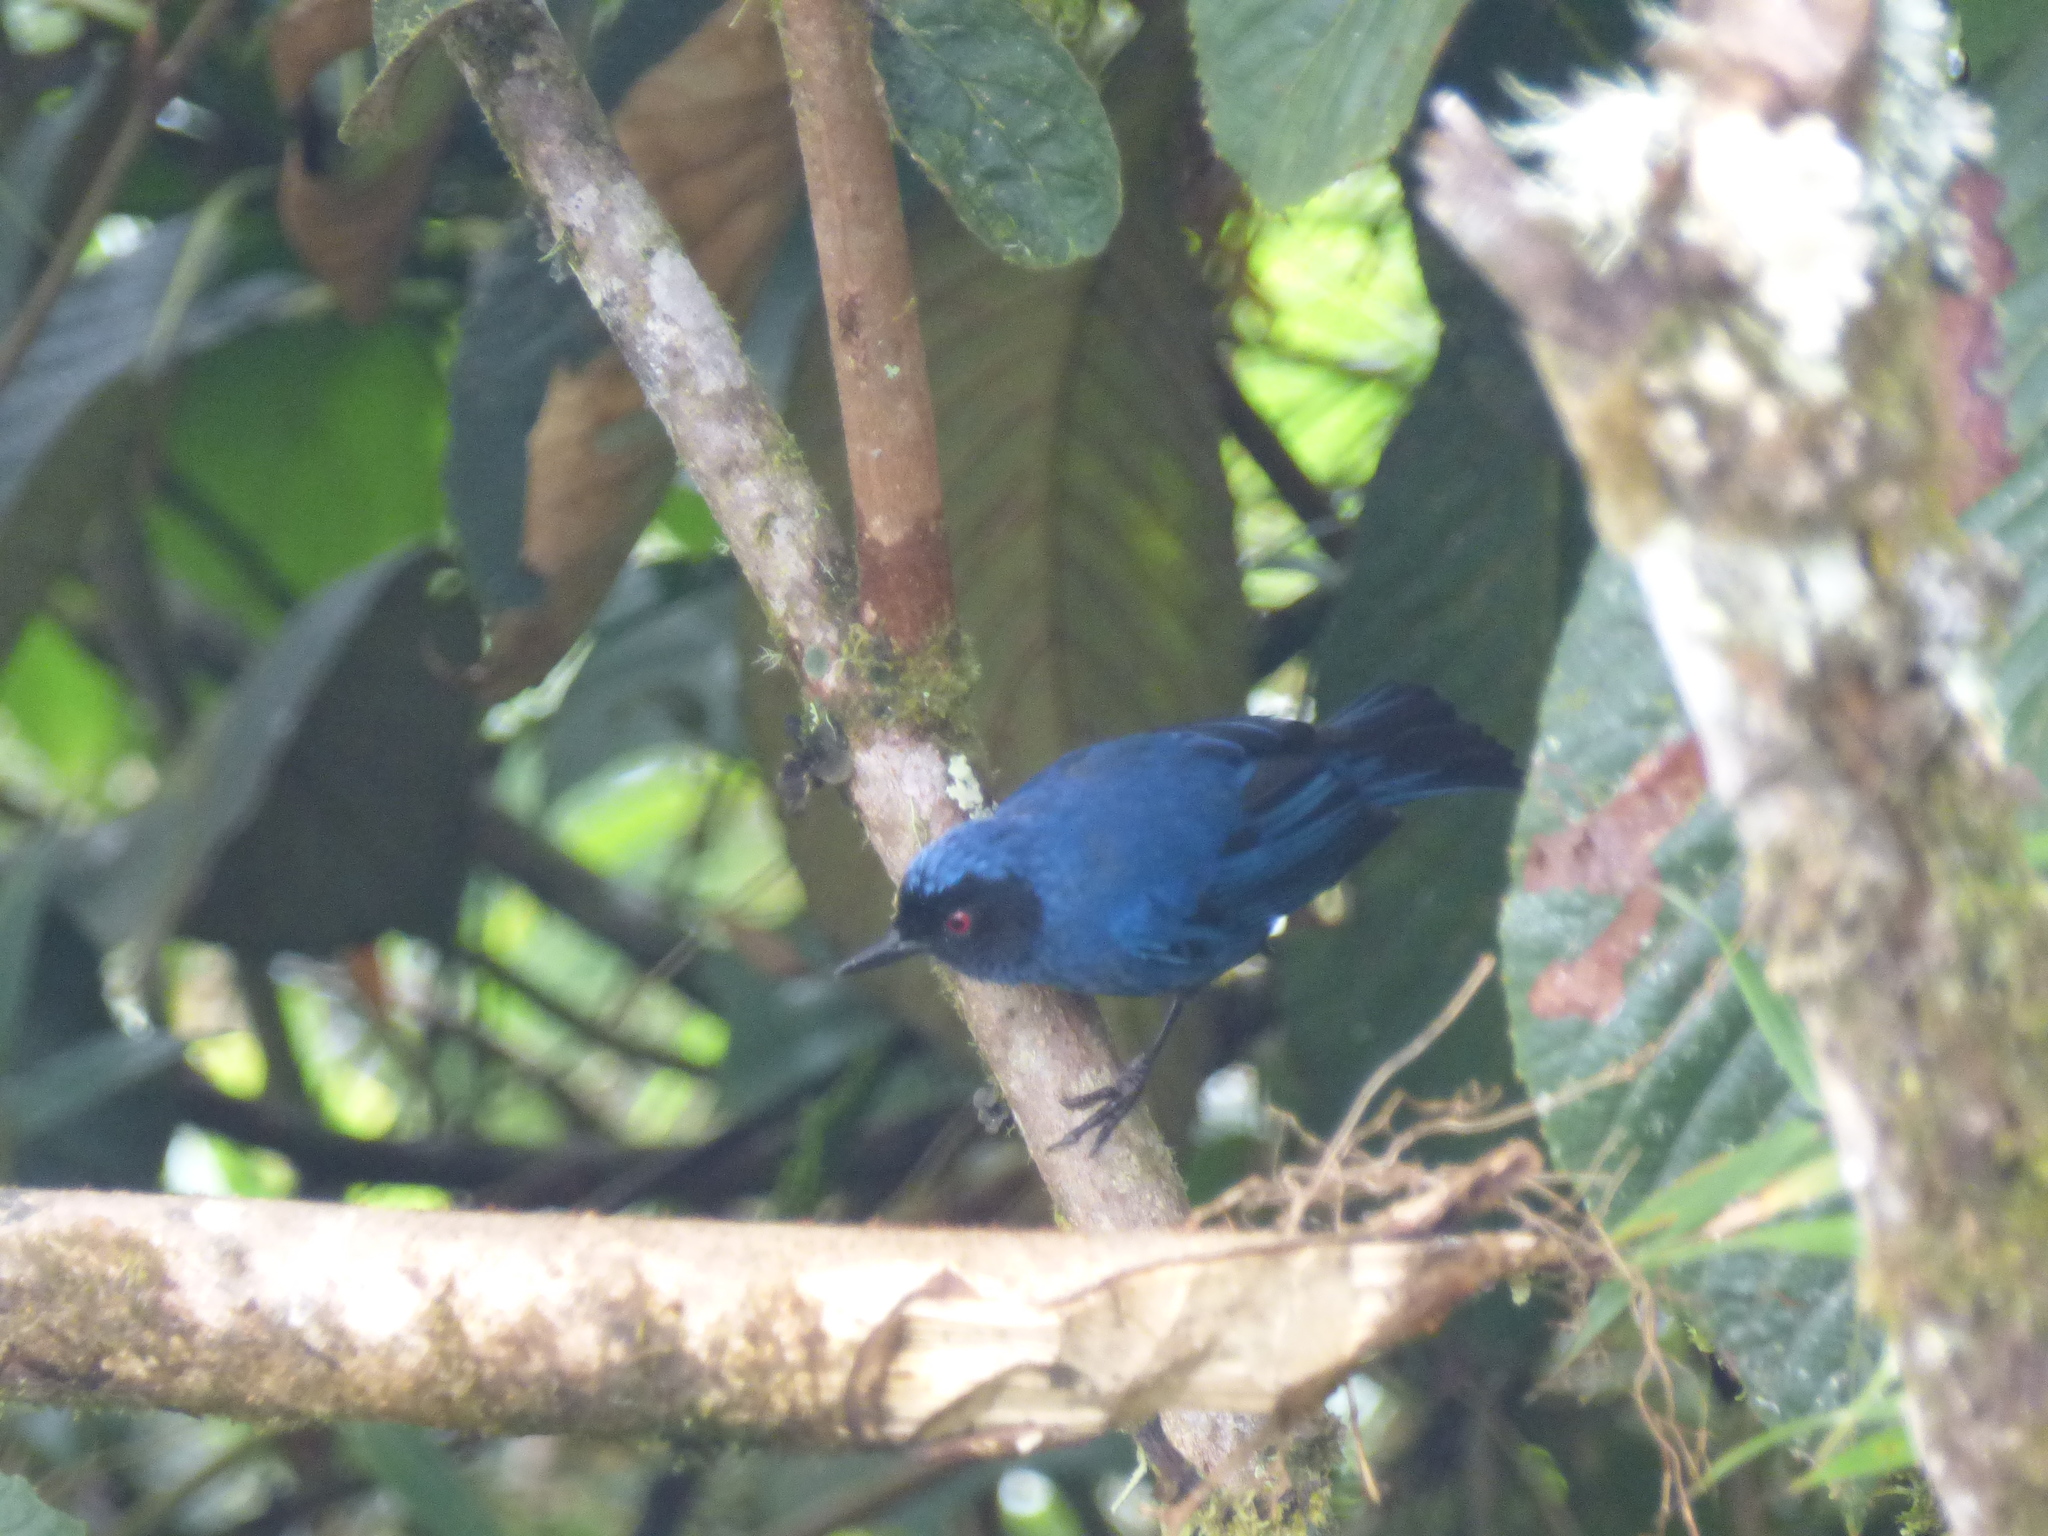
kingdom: Animalia
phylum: Chordata
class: Aves
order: Passeriformes
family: Thraupidae
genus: Diglossa
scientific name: Diglossa cyanea
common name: Masked flowerpiercer
